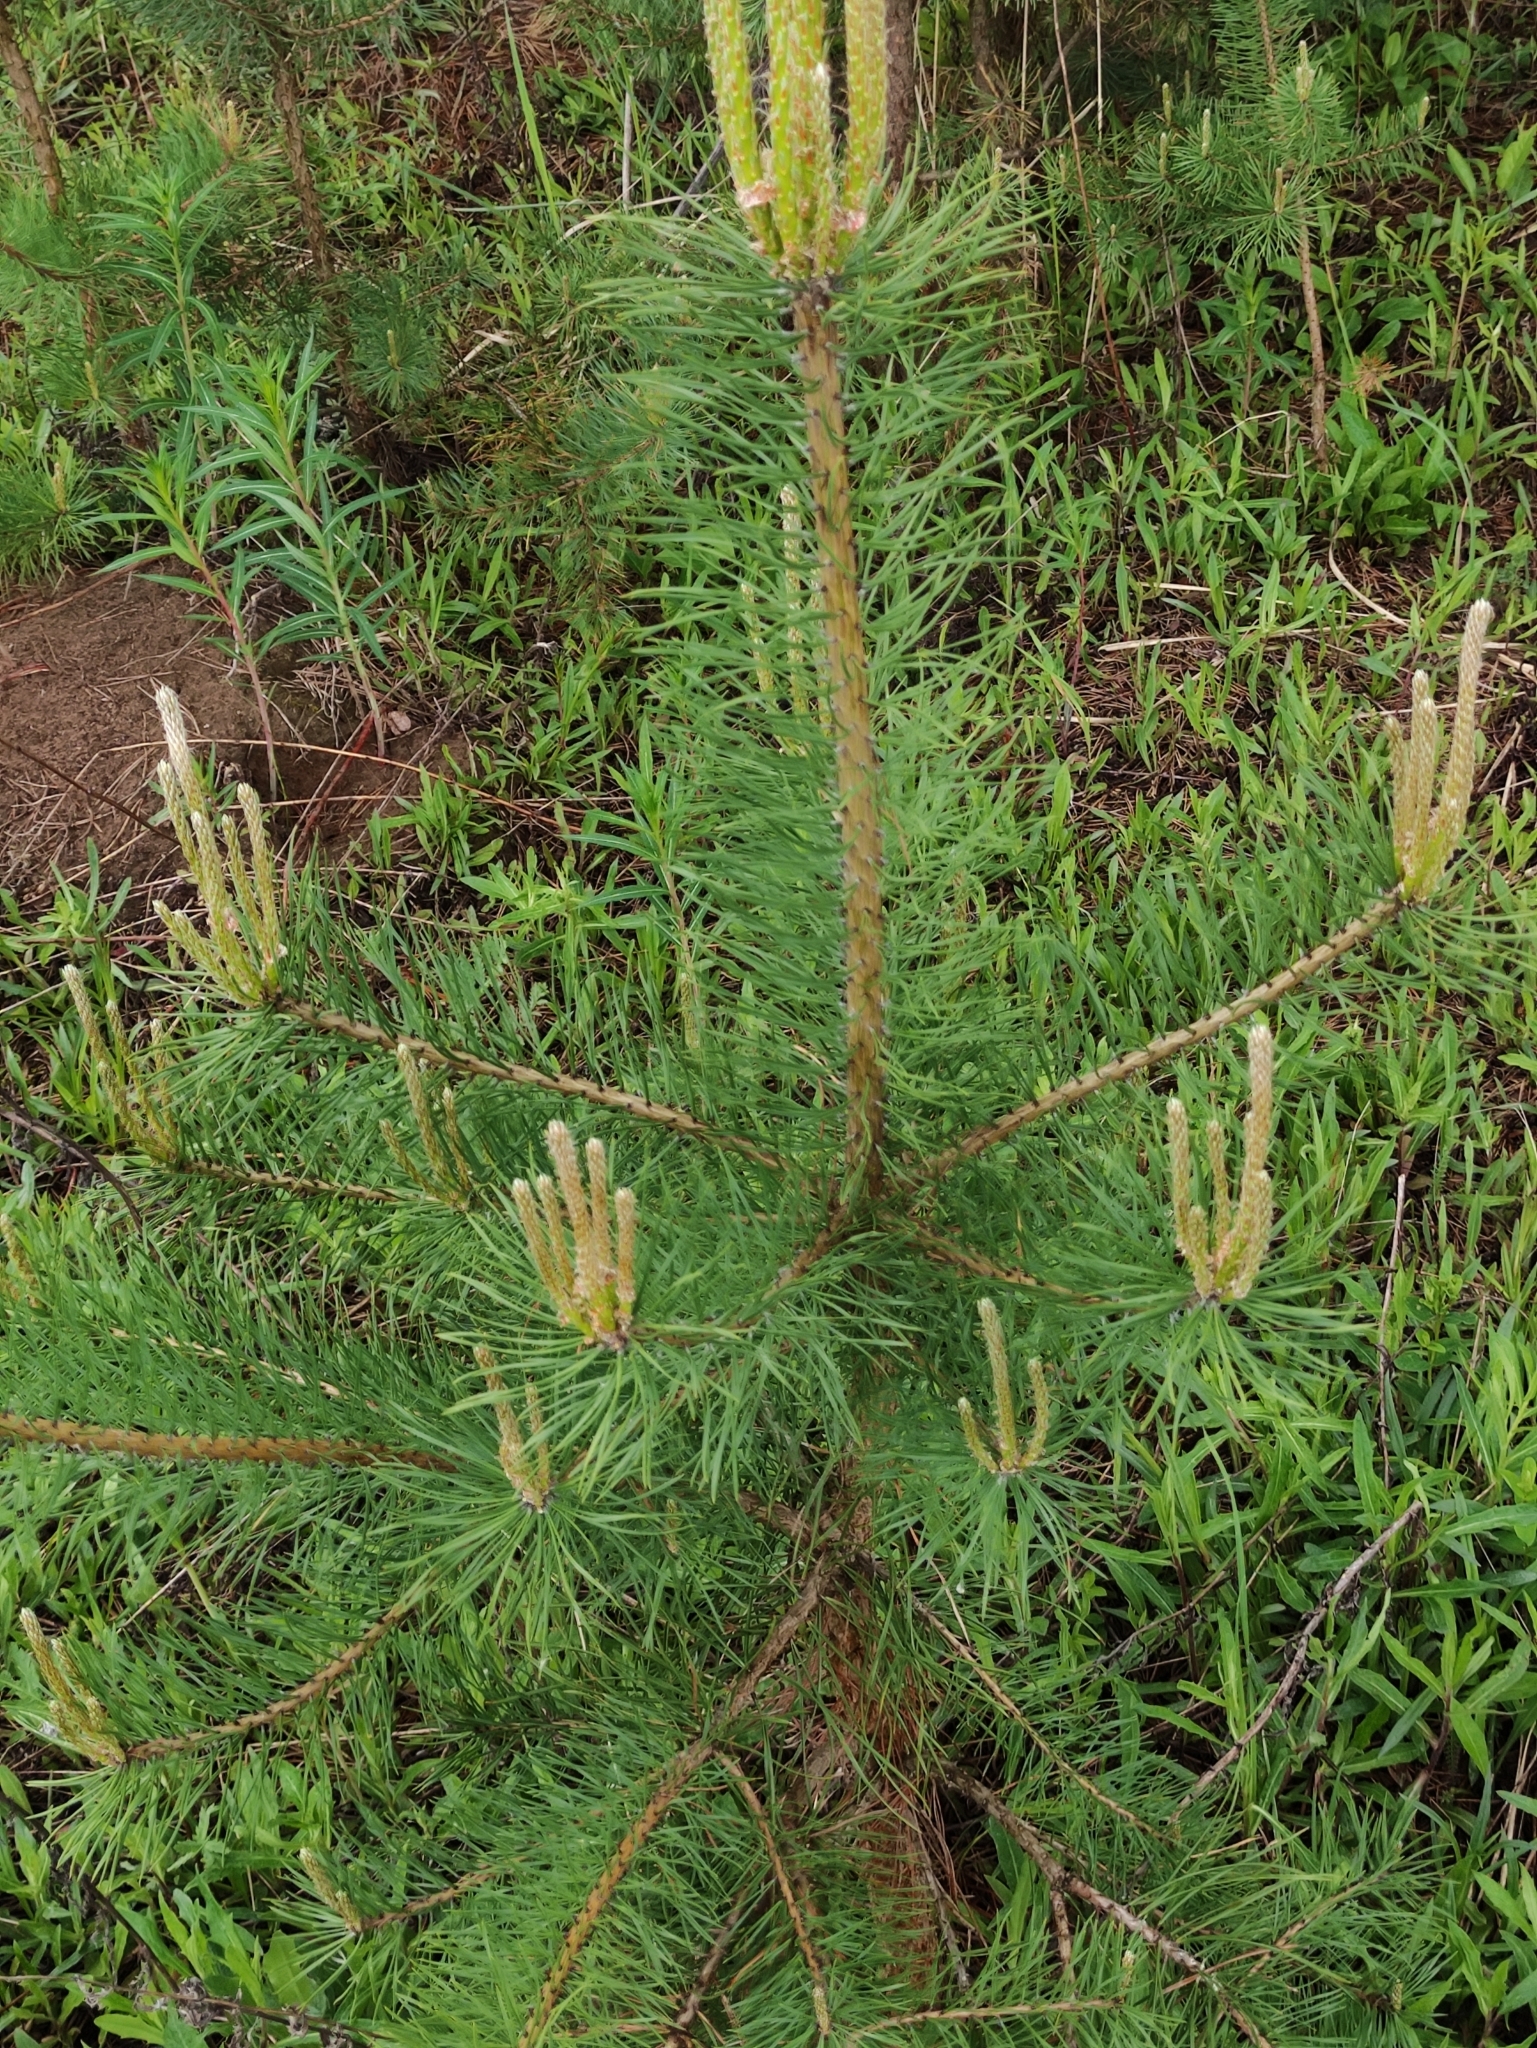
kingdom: Plantae
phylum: Tracheophyta
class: Pinopsida
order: Pinales
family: Pinaceae
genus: Pinus
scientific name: Pinus sylvestris
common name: Scots pine
